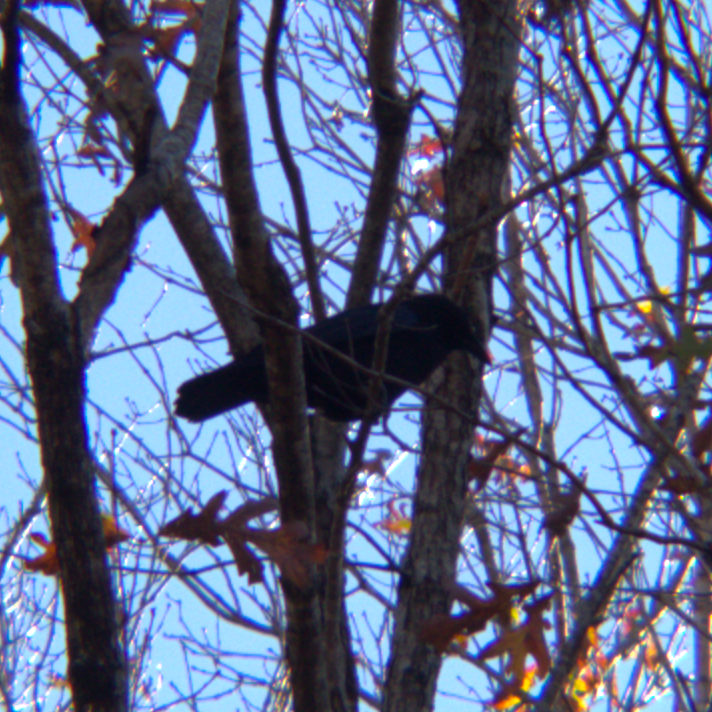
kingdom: Animalia
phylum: Chordata
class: Aves
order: Passeriformes
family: Corvidae
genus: Corvus
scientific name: Corvus brachyrhynchos
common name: American crow
